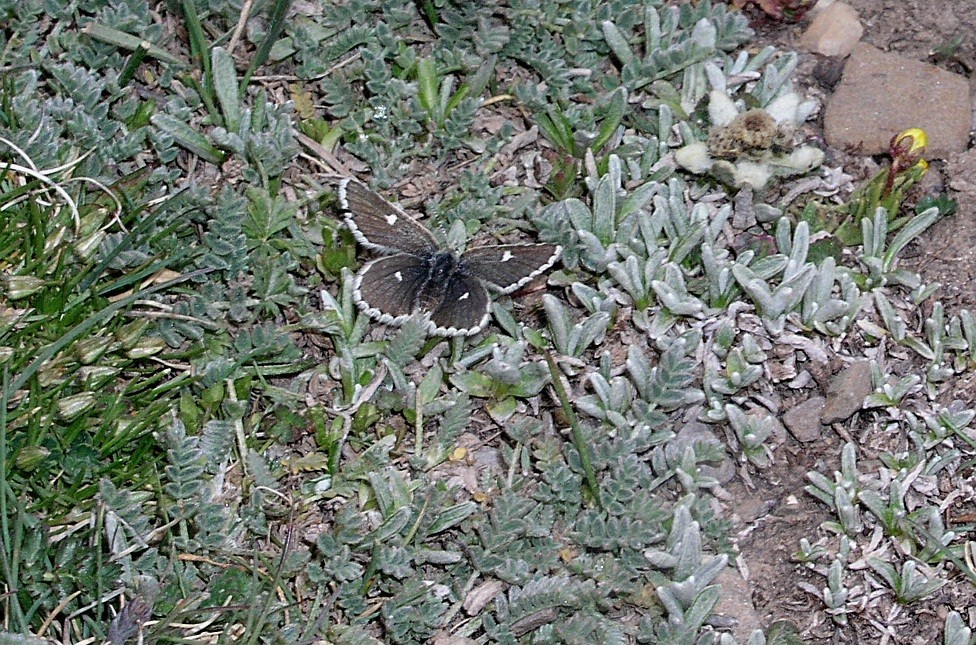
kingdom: Animalia
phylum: Arthropoda
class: Insecta
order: Lepidoptera
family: Lycaenidae
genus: Agriades
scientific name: Agriades
